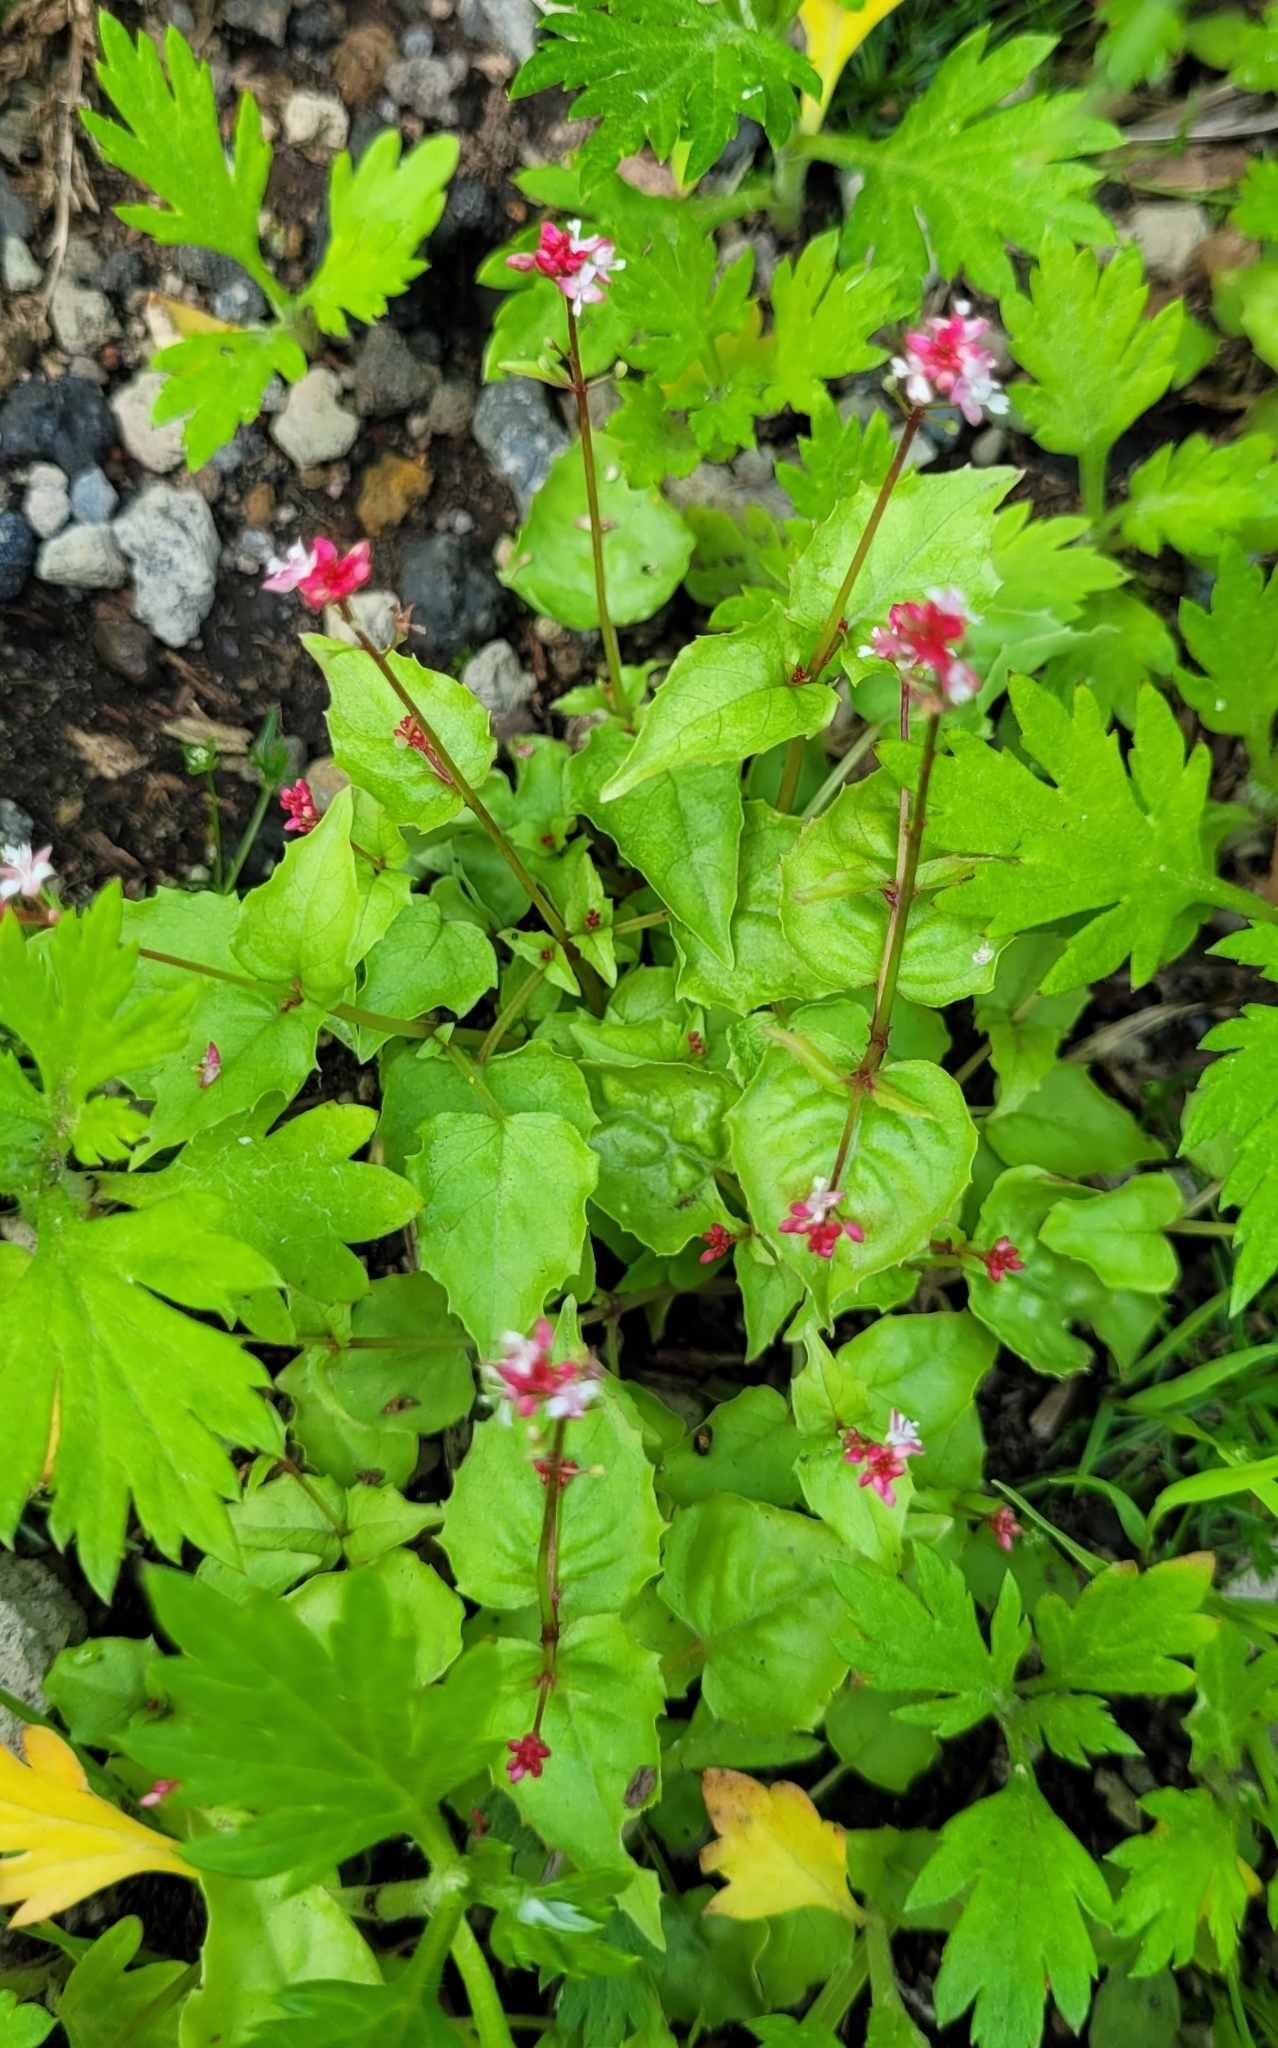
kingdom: Plantae
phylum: Tracheophyta
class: Magnoliopsida
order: Myrtales
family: Onagraceae
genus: Circaea
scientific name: Circaea alpina
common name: Alpine enchanter's-nightshade
